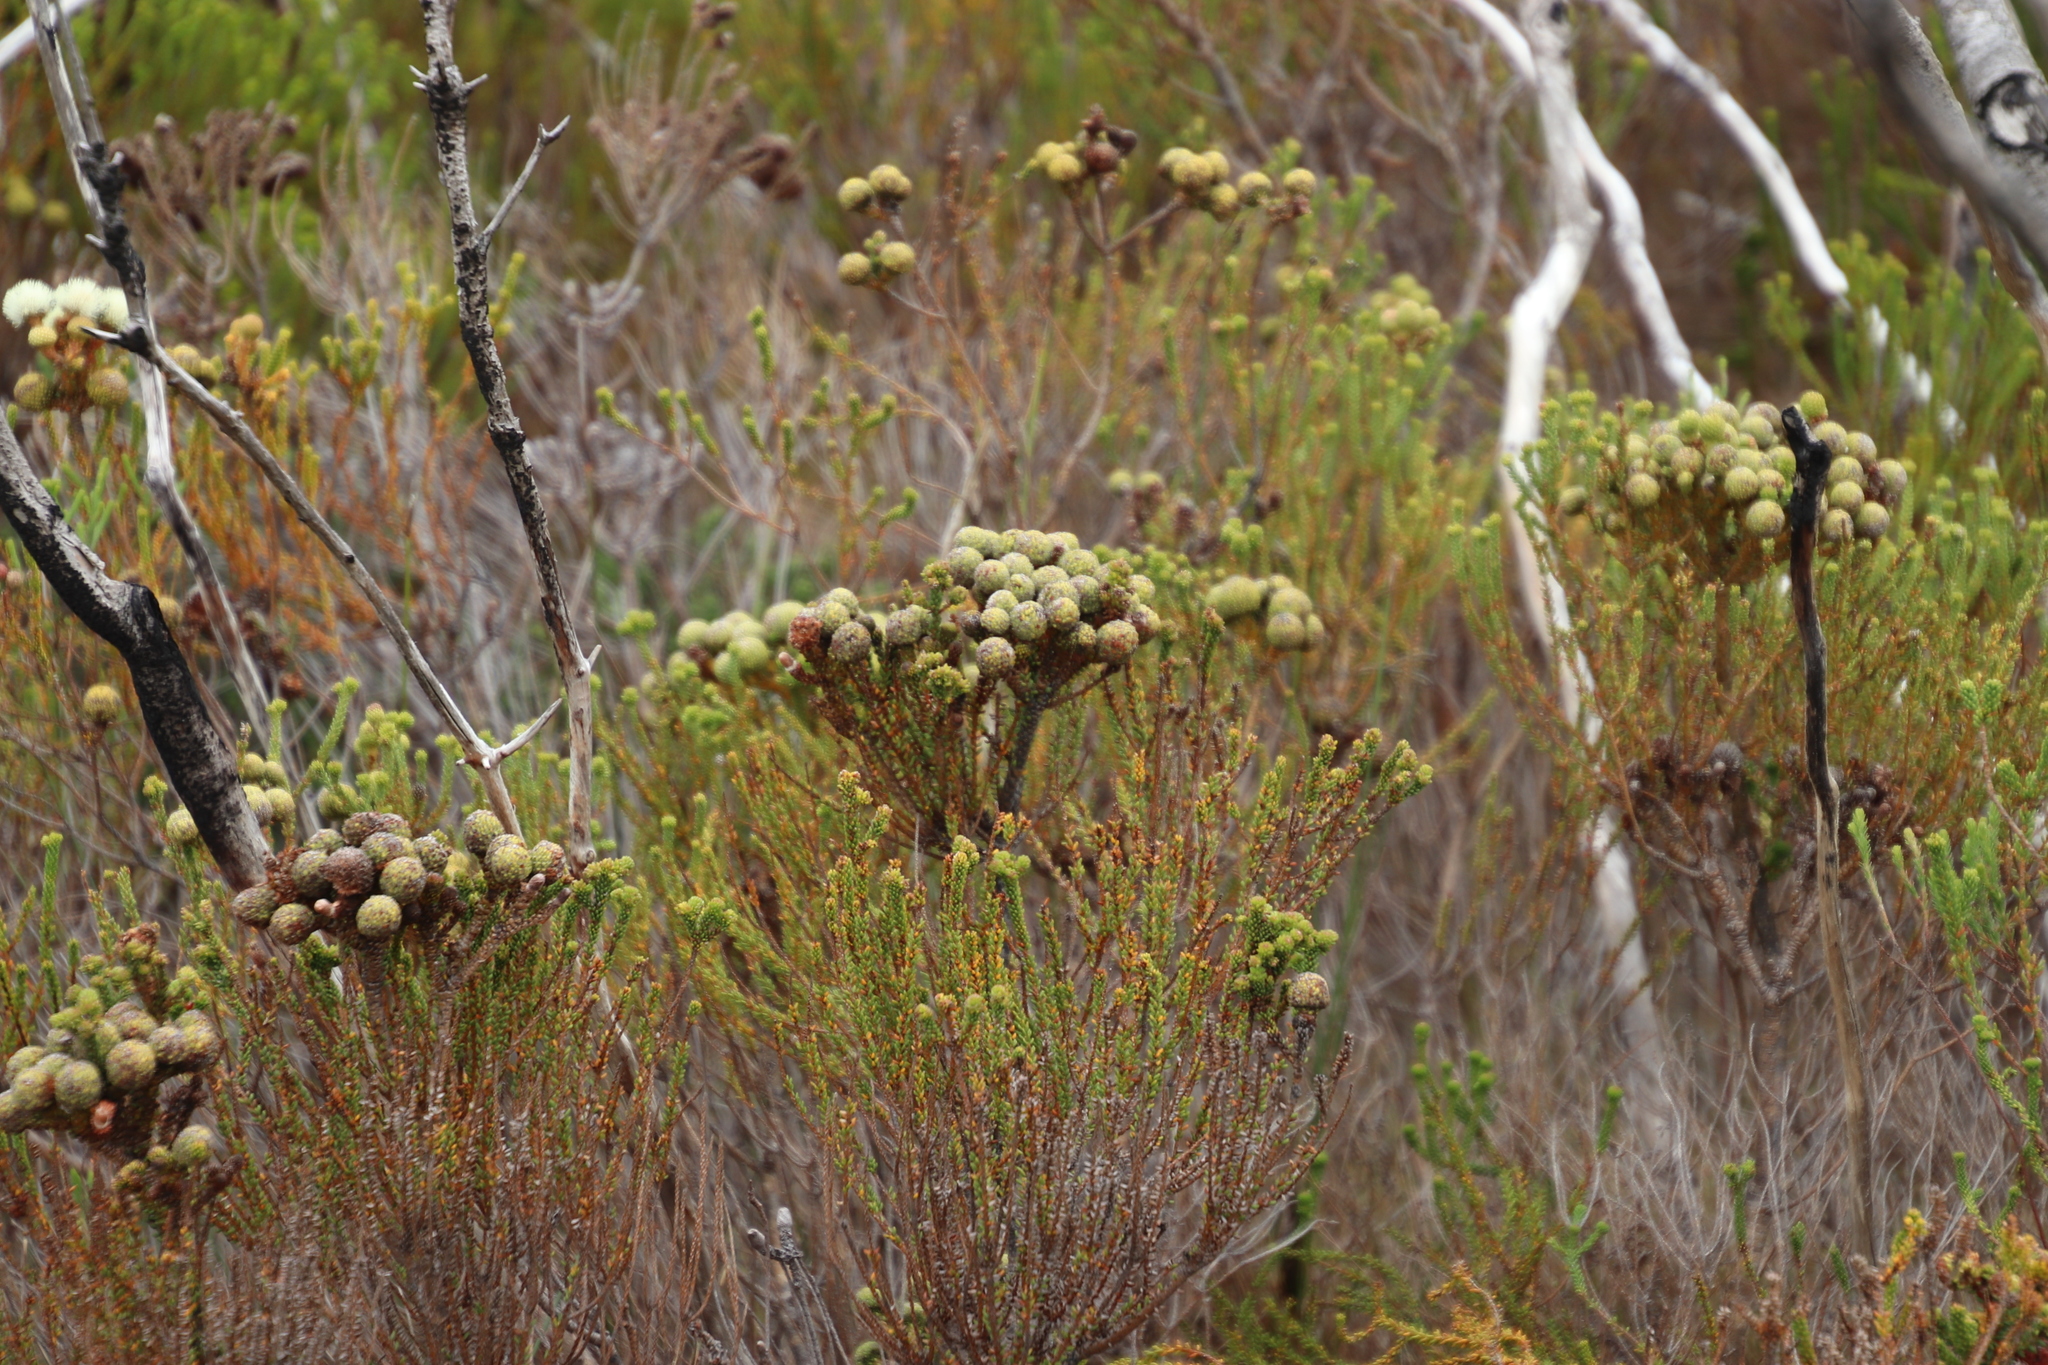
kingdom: Plantae
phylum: Tracheophyta
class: Magnoliopsida
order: Bruniales
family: Bruniaceae
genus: Berzelia
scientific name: Berzelia abrotanoides
